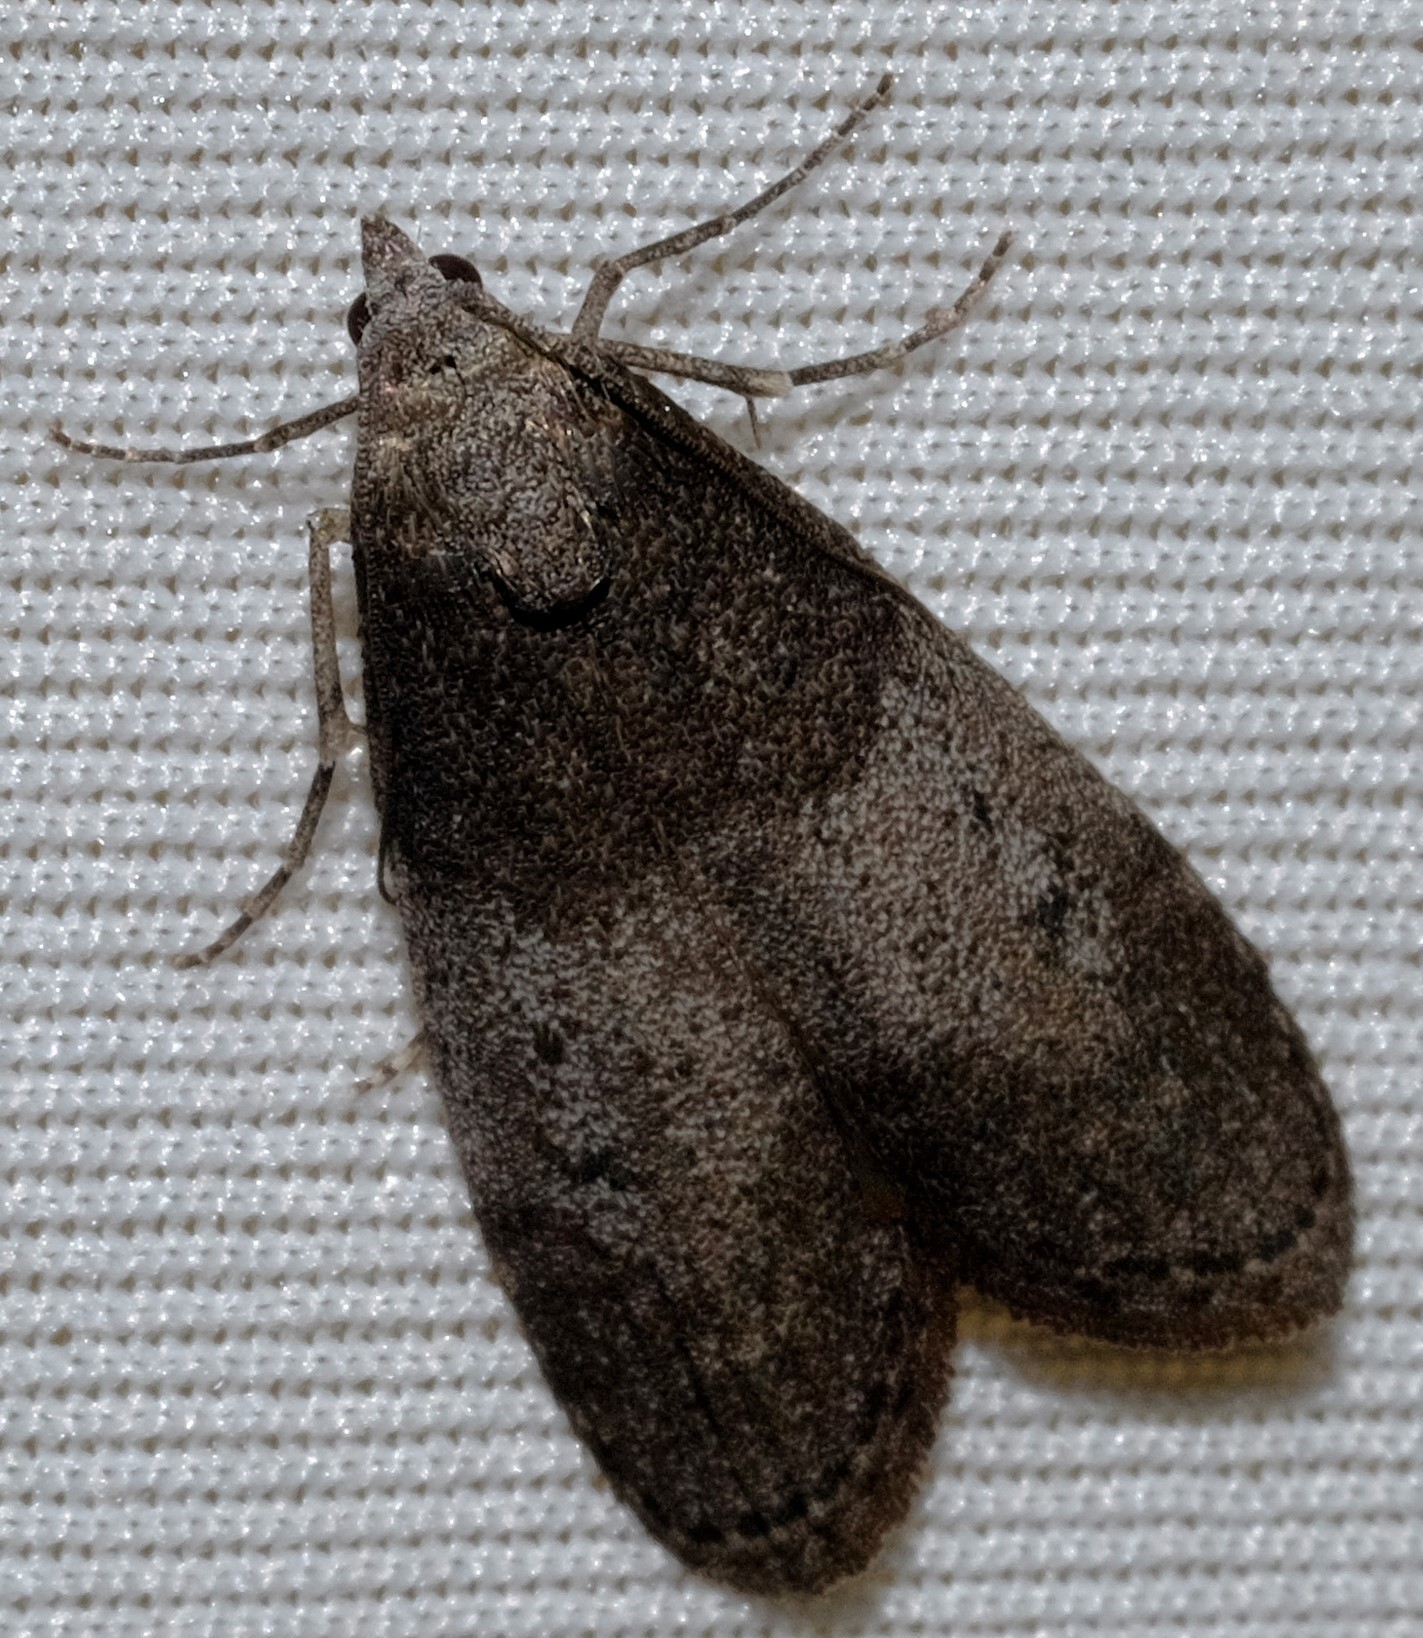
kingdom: Animalia
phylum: Arthropoda
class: Insecta
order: Lepidoptera
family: Pyralidae
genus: Aphomia
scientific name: Aphomia baryptera
